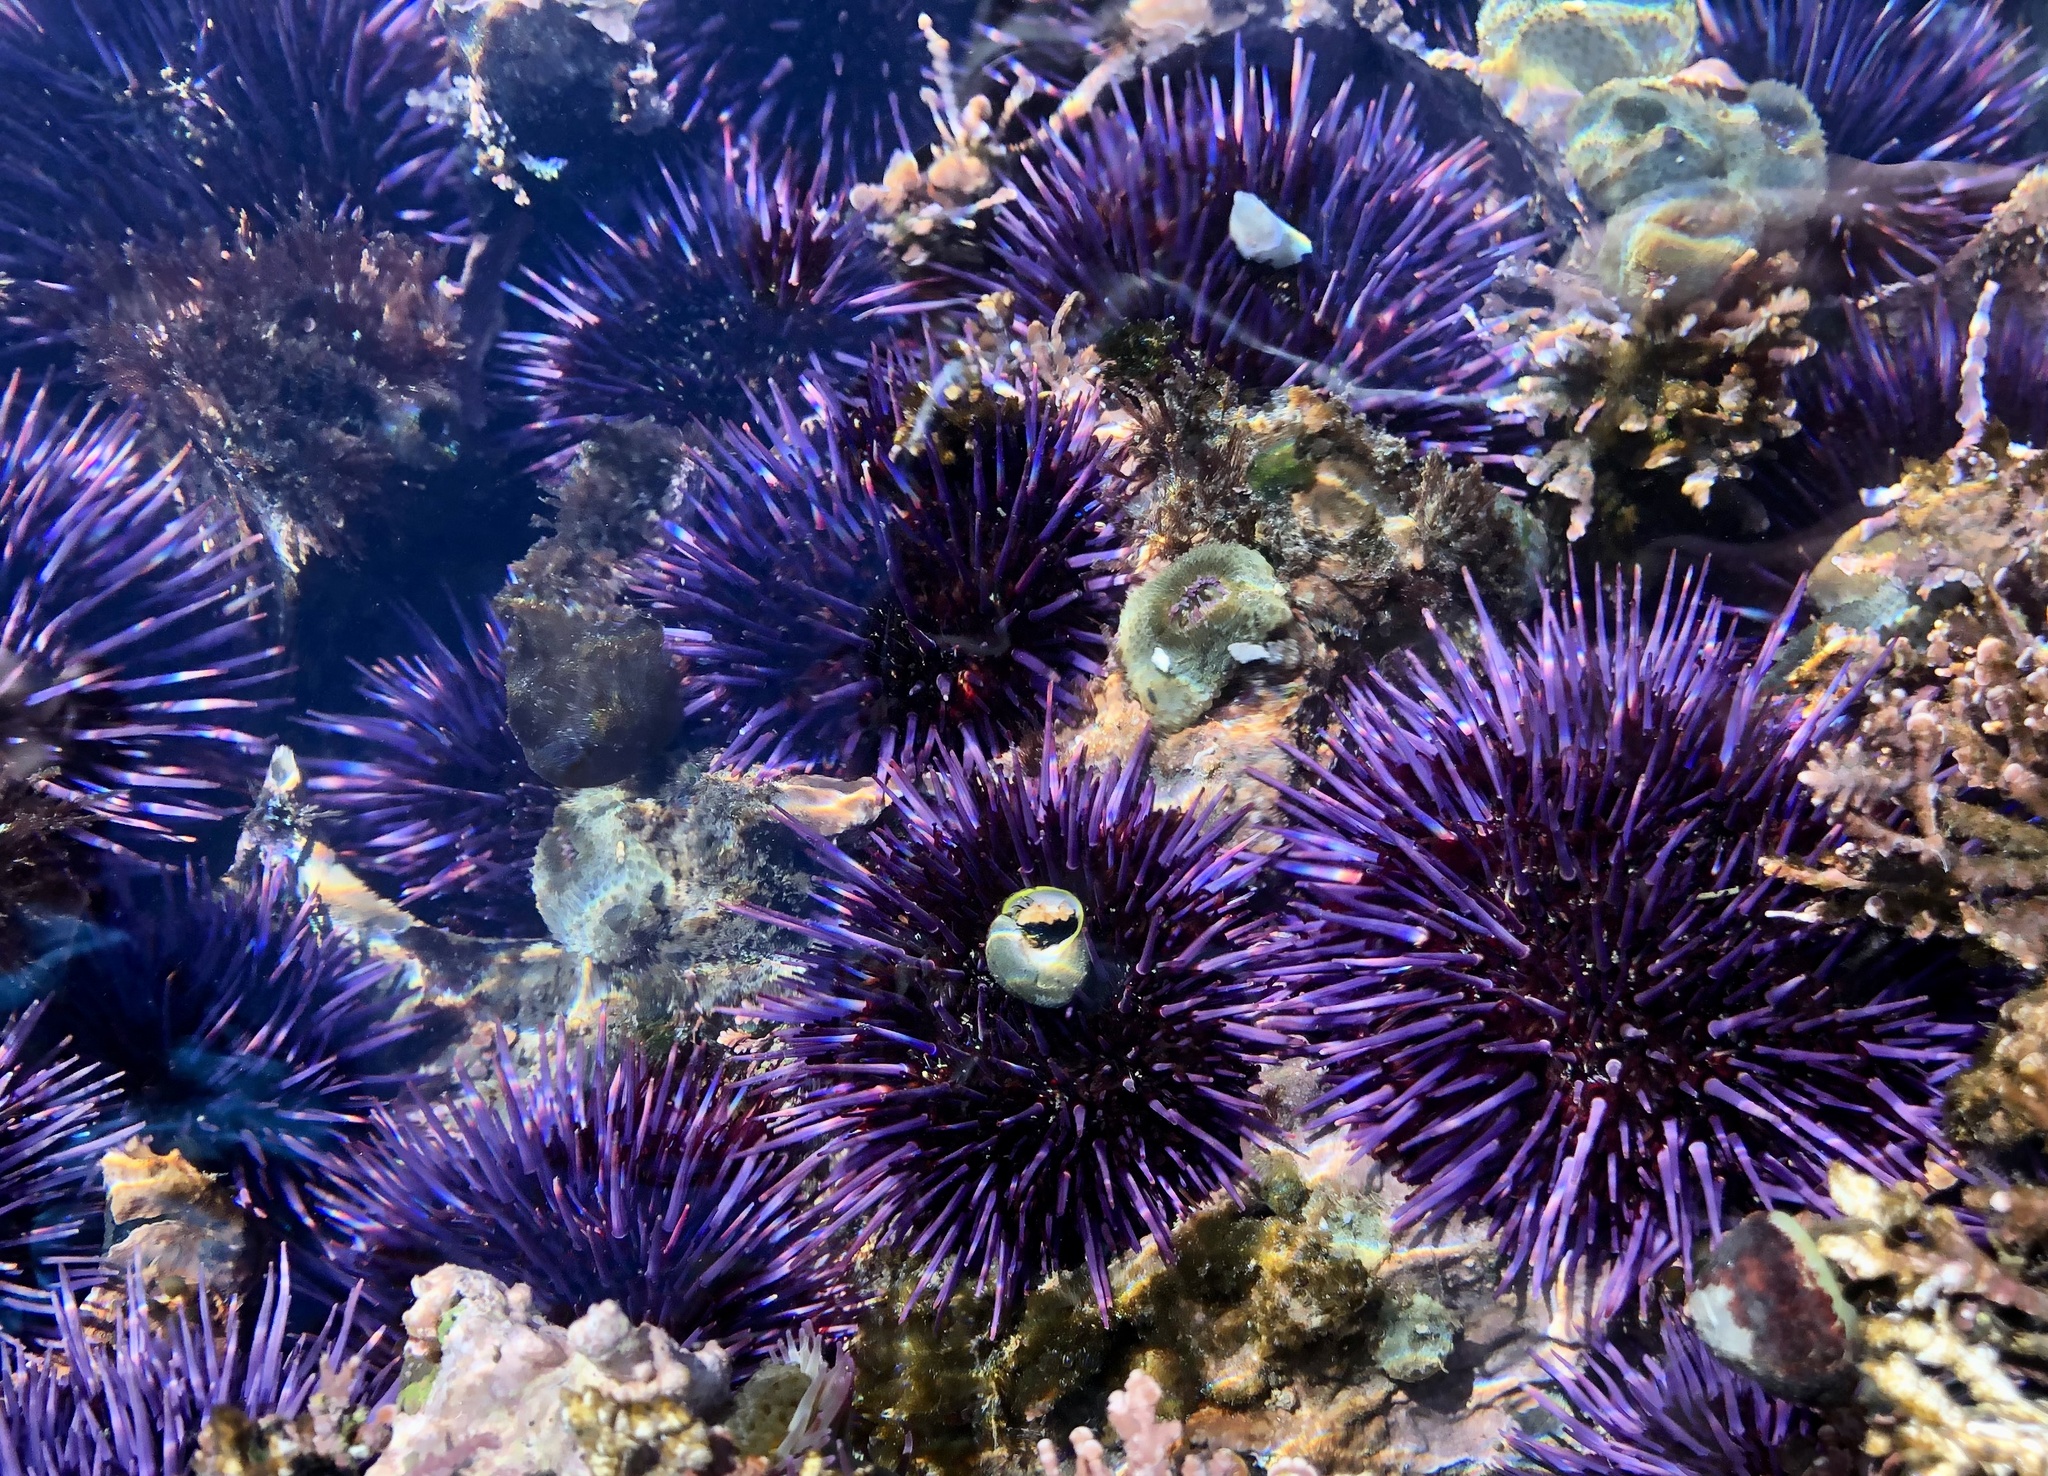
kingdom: Animalia
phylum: Echinodermata
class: Echinoidea
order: Camarodonta
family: Strongylocentrotidae
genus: Strongylocentrotus
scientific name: Strongylocentrotus purpuratus
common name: Purple sea urchin
